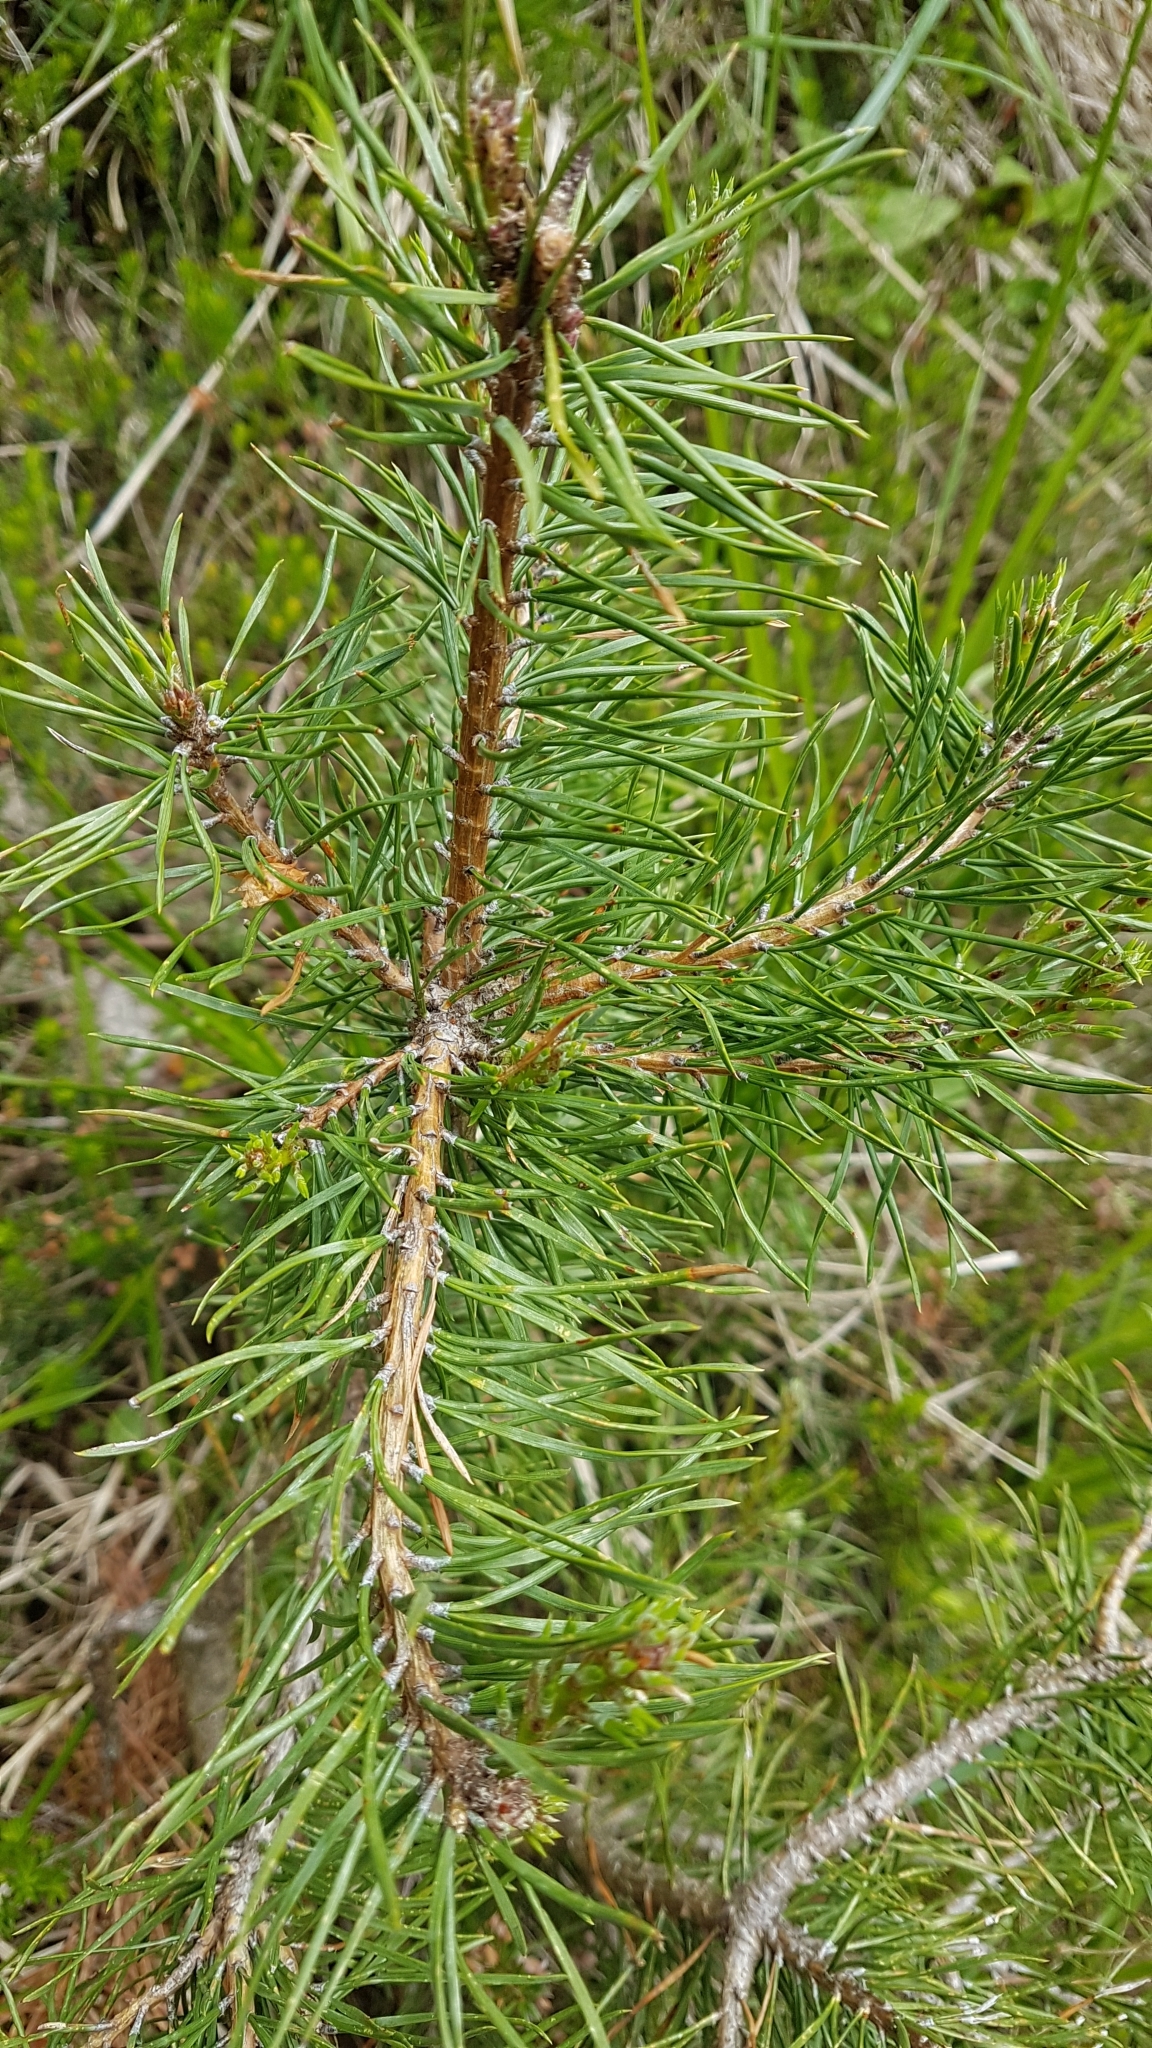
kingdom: Plantae
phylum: Tracheophyta
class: Pinopsida
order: Pinales
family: Pinaceae
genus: Pinus
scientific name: Pinus sylvestris
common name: Scots pine
